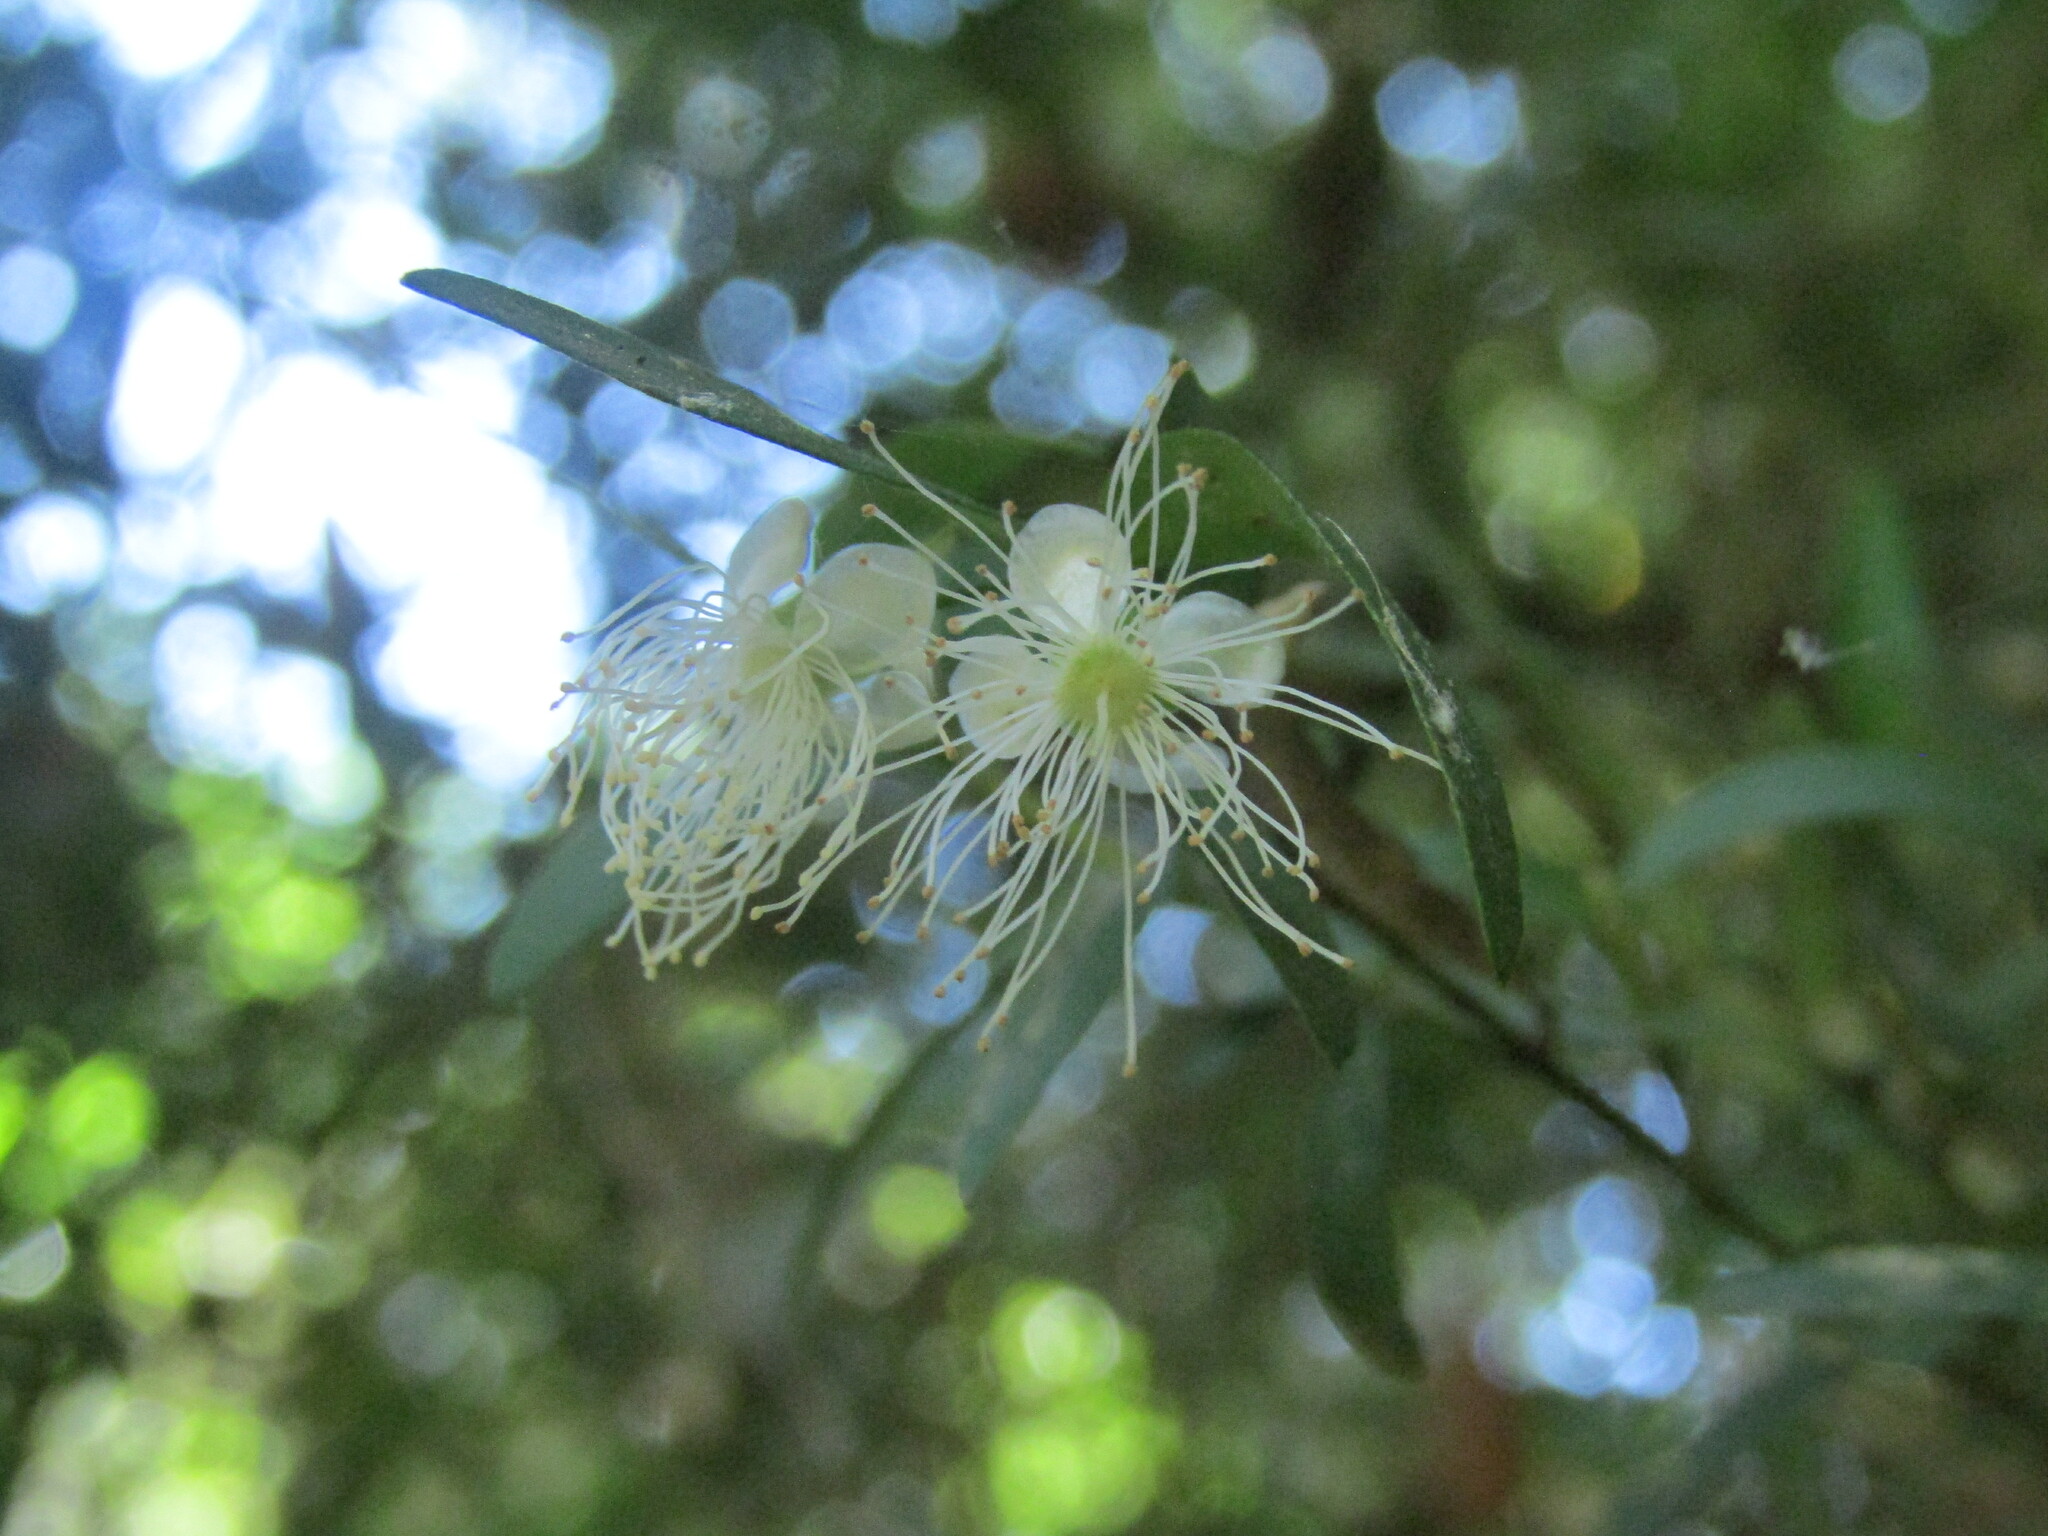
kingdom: Plantae
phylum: Tracheophyta
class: Magnoliopsida
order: Myrtales
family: Myrtaceae
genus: Myrceugenia
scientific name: Myrceugenia parvifolia
